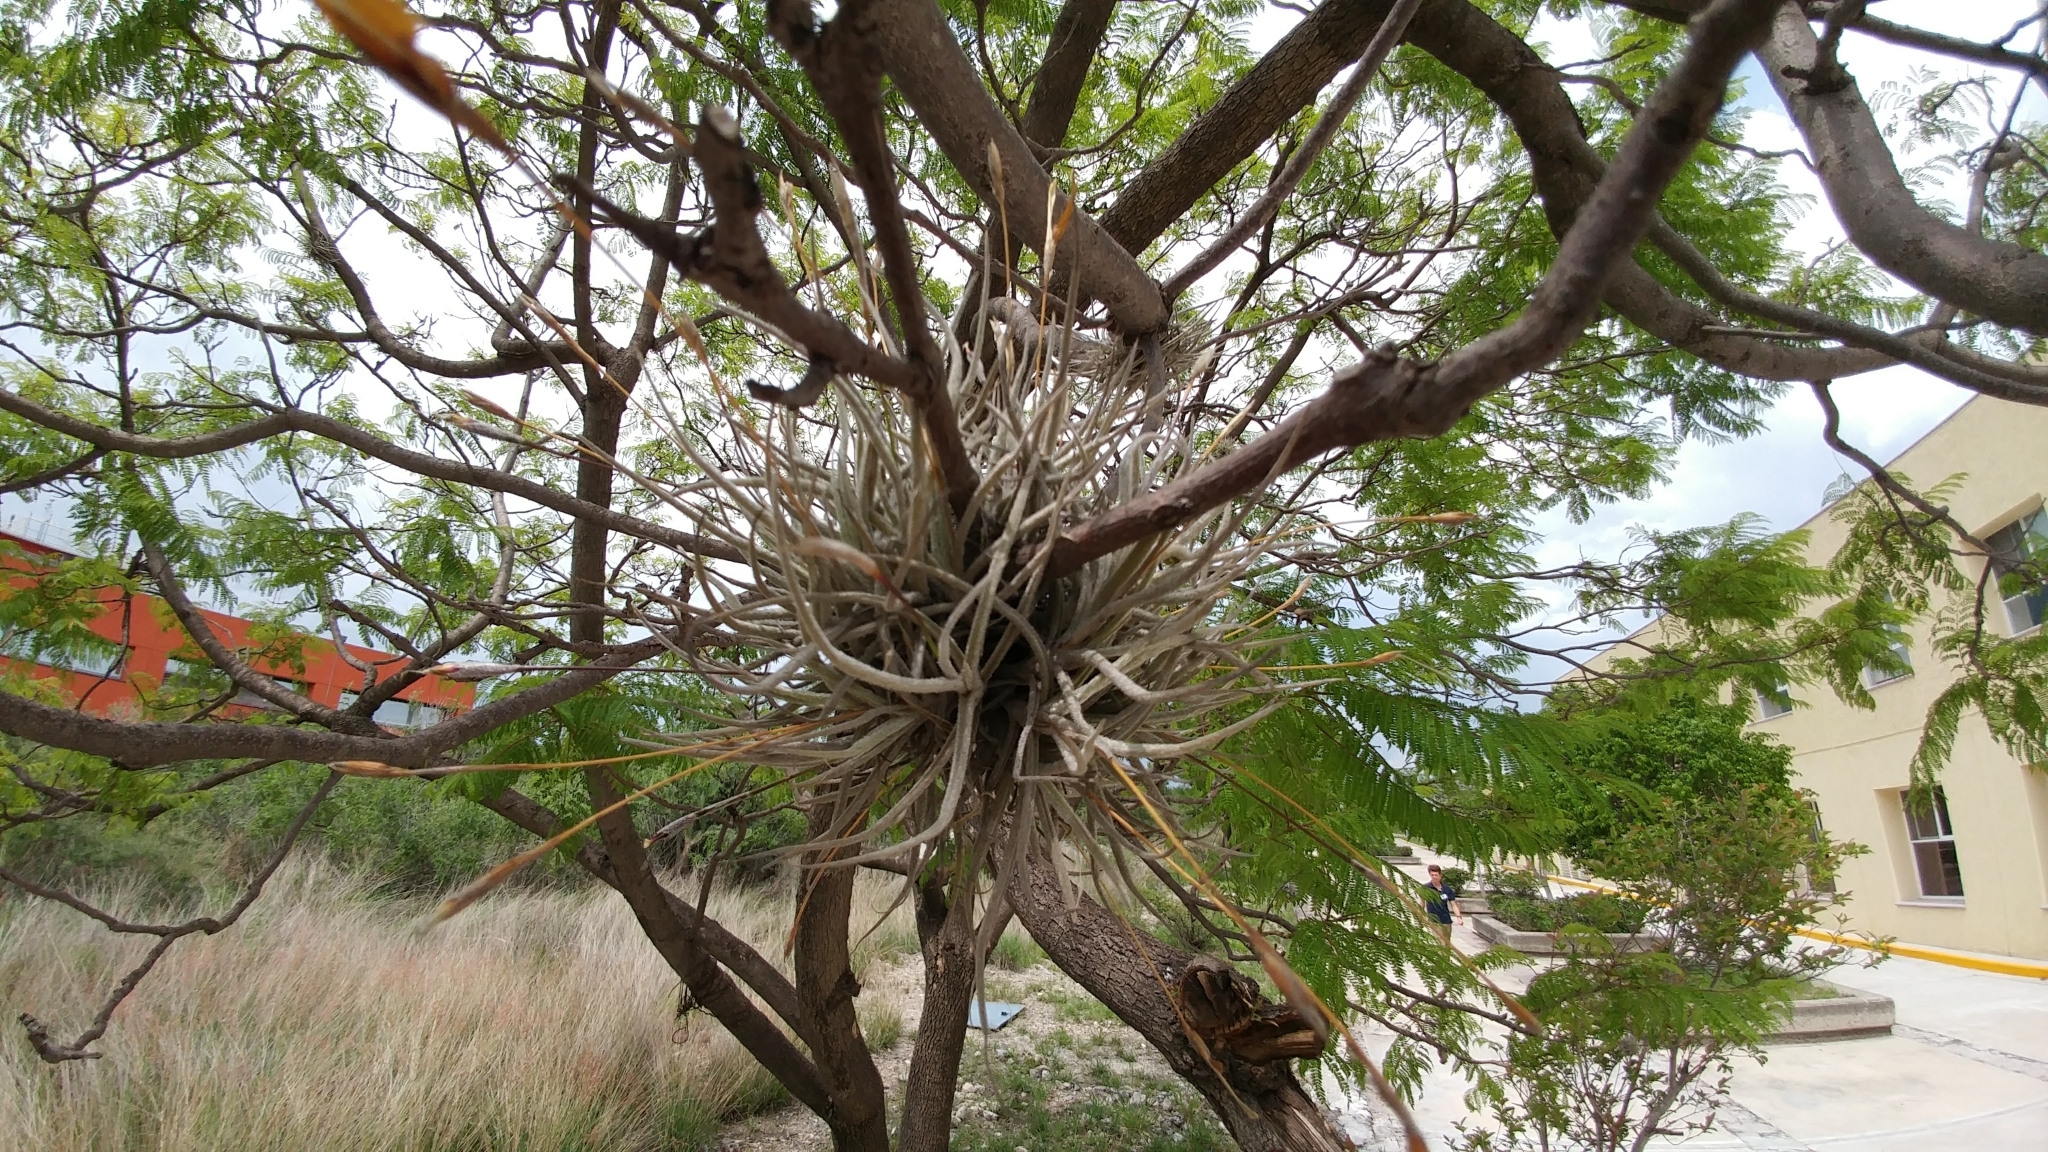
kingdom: Plantae
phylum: Tracheophyta
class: Liliopsida
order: Poales
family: Bromeliaceae
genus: Tillandsia
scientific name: Tillandsia recurvata
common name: Small ballmoss
